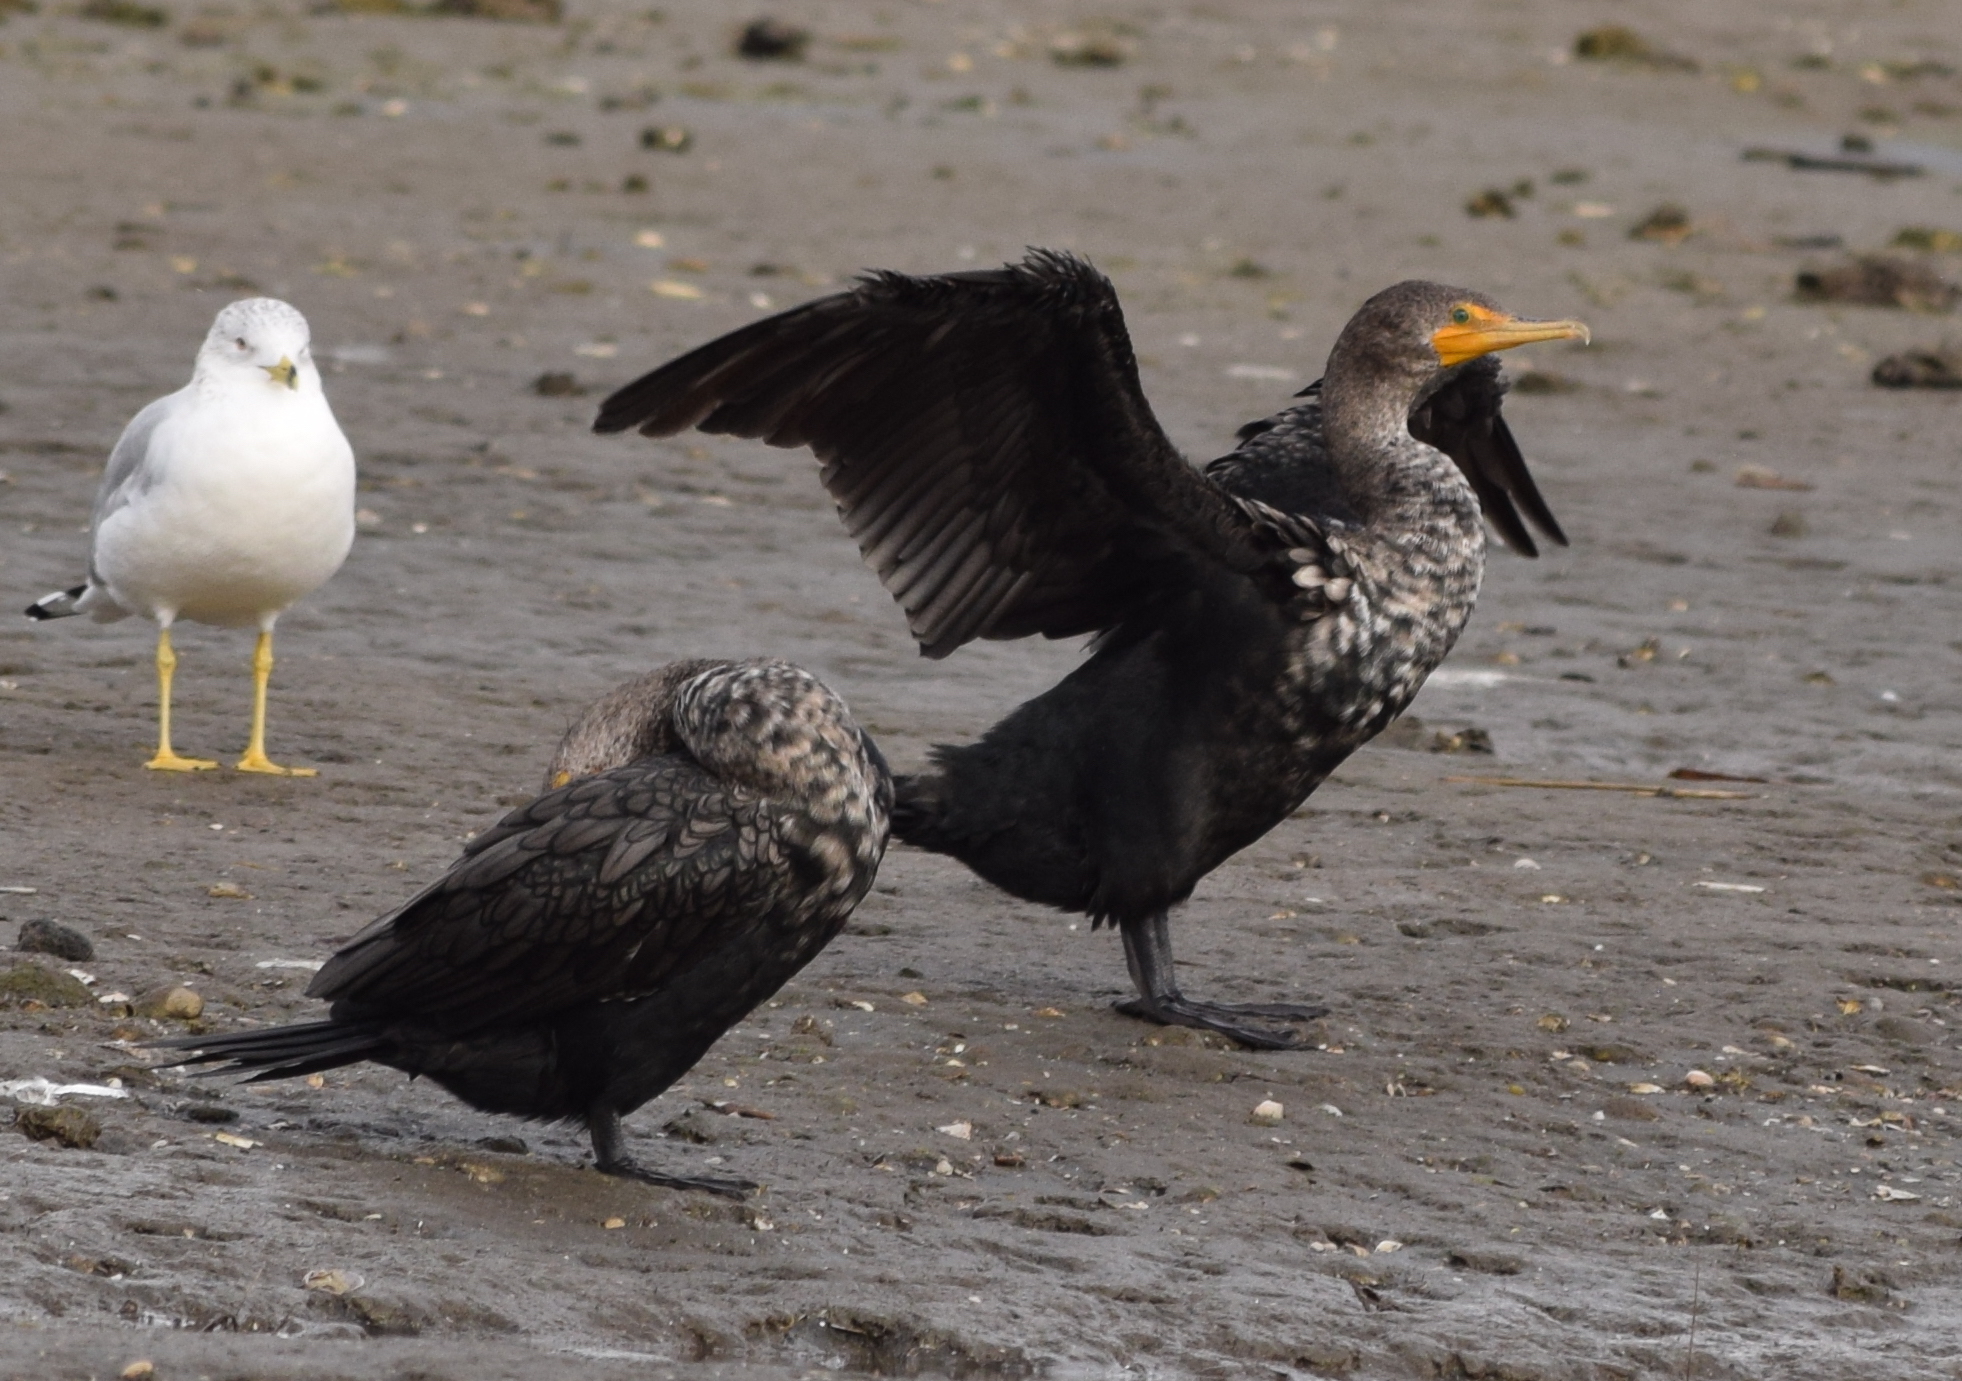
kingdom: Animalia
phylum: Chordata
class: Aves
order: Suliformes
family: Phalacrocoracidae
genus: Phalacrocorax
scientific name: Phalacrocorax auritus
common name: Double-crested cormorant
